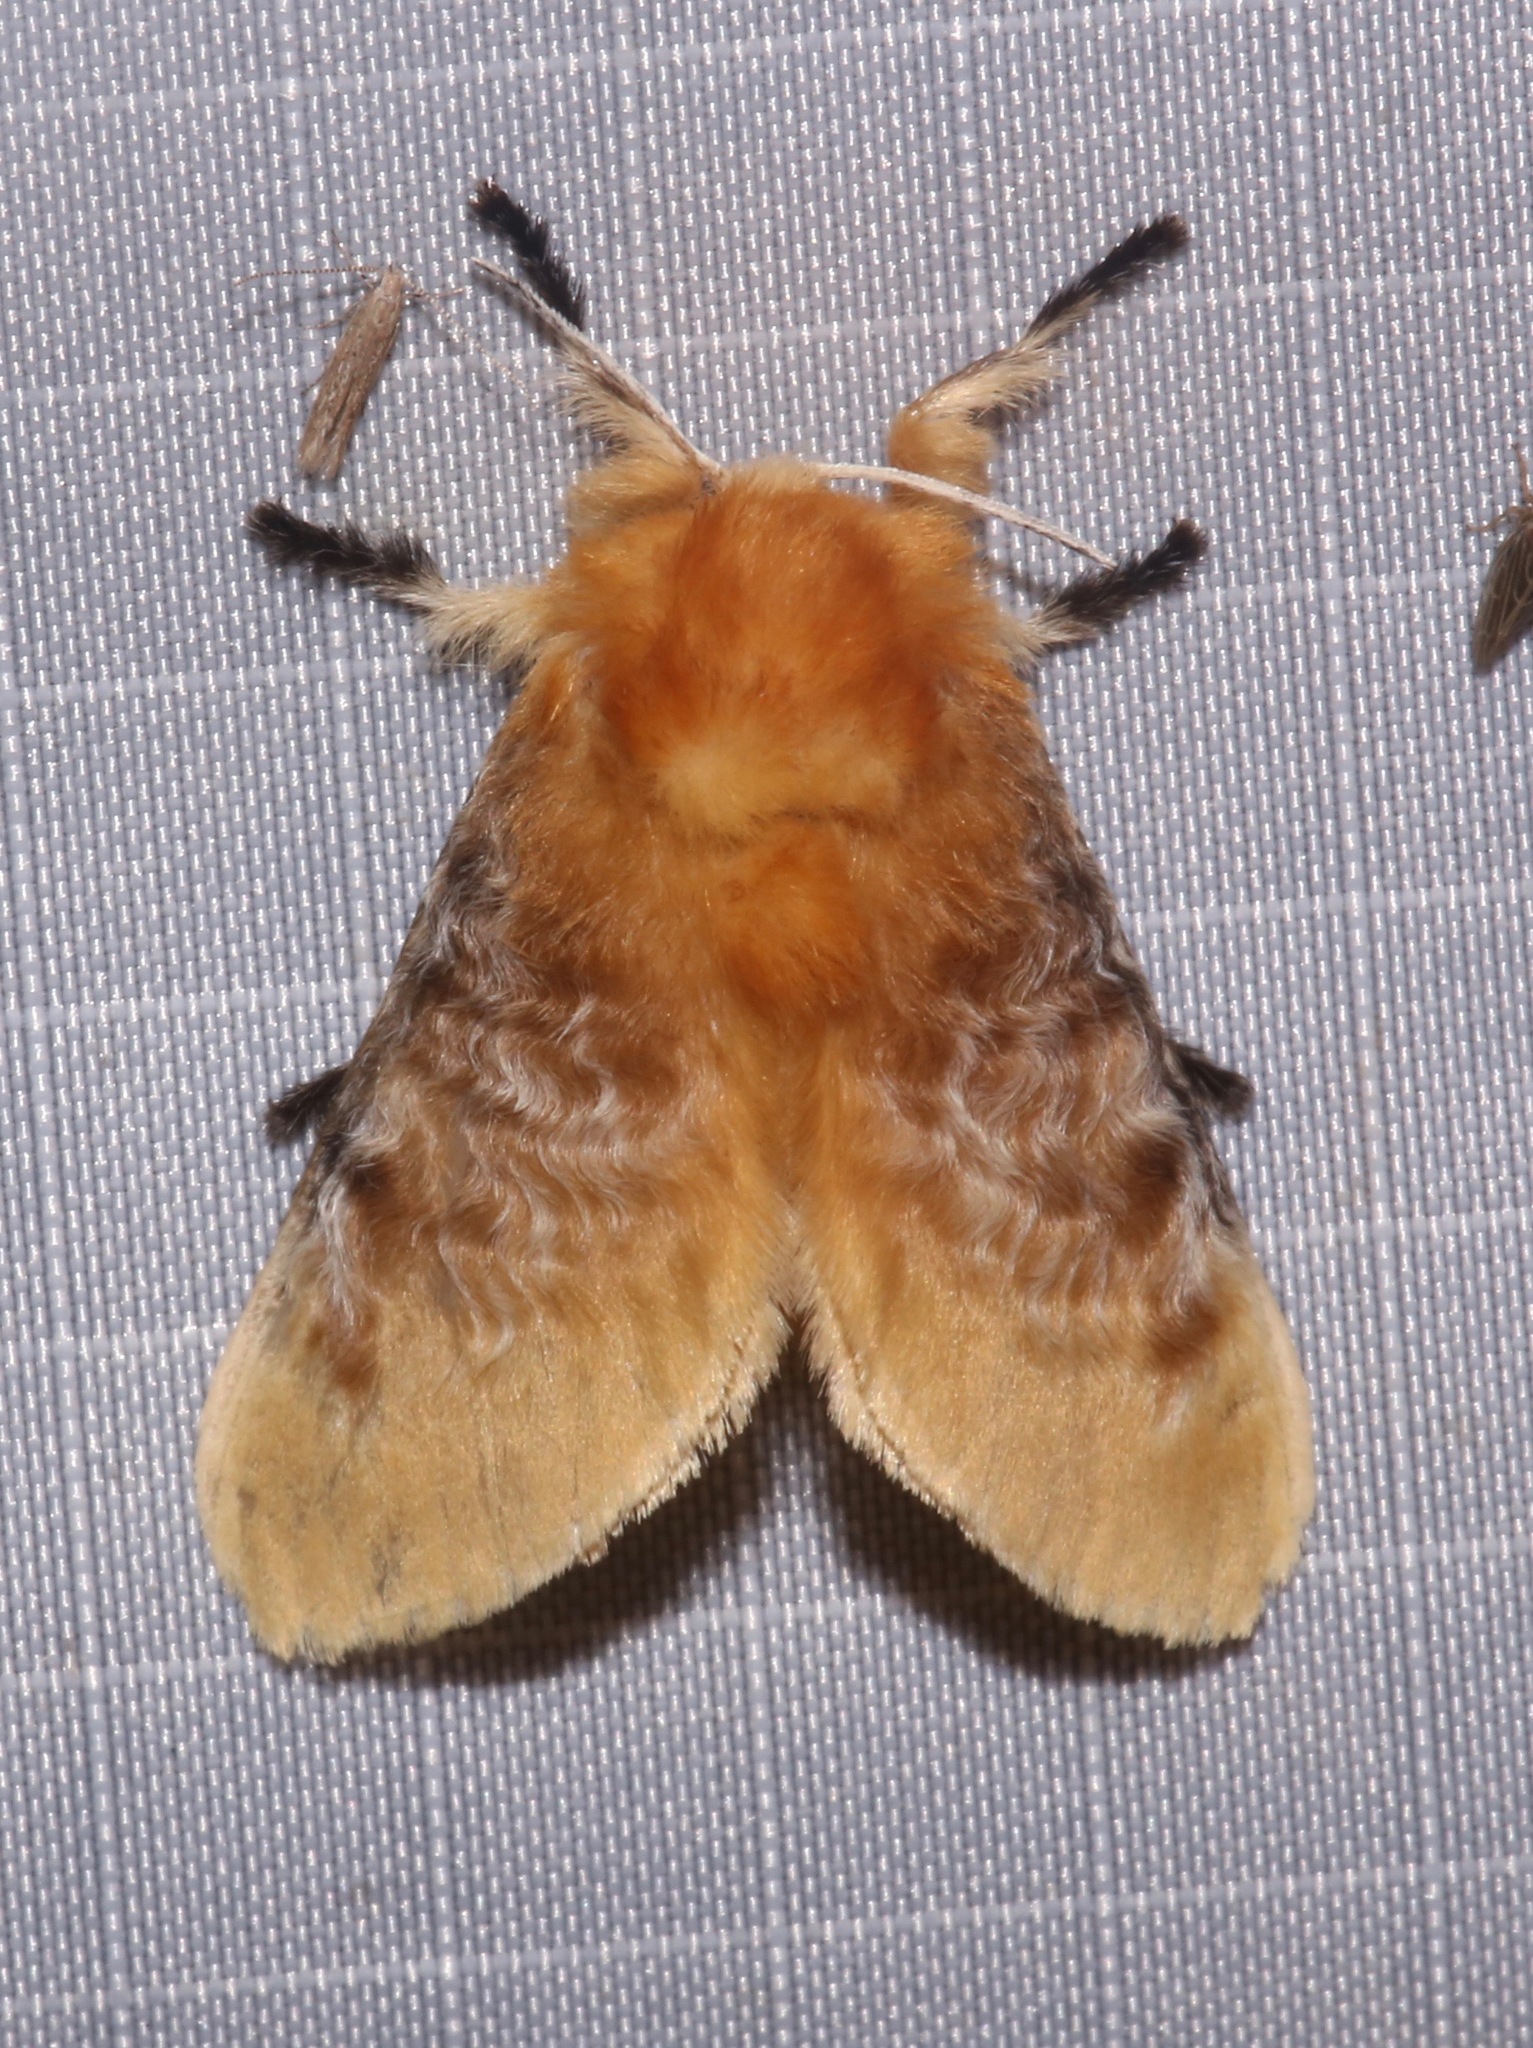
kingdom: Animalia
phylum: Arthropoda
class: Insecta
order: Lepidoptera
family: Megalopygidae
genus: Megalopyge
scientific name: Megalopyge opercularis
